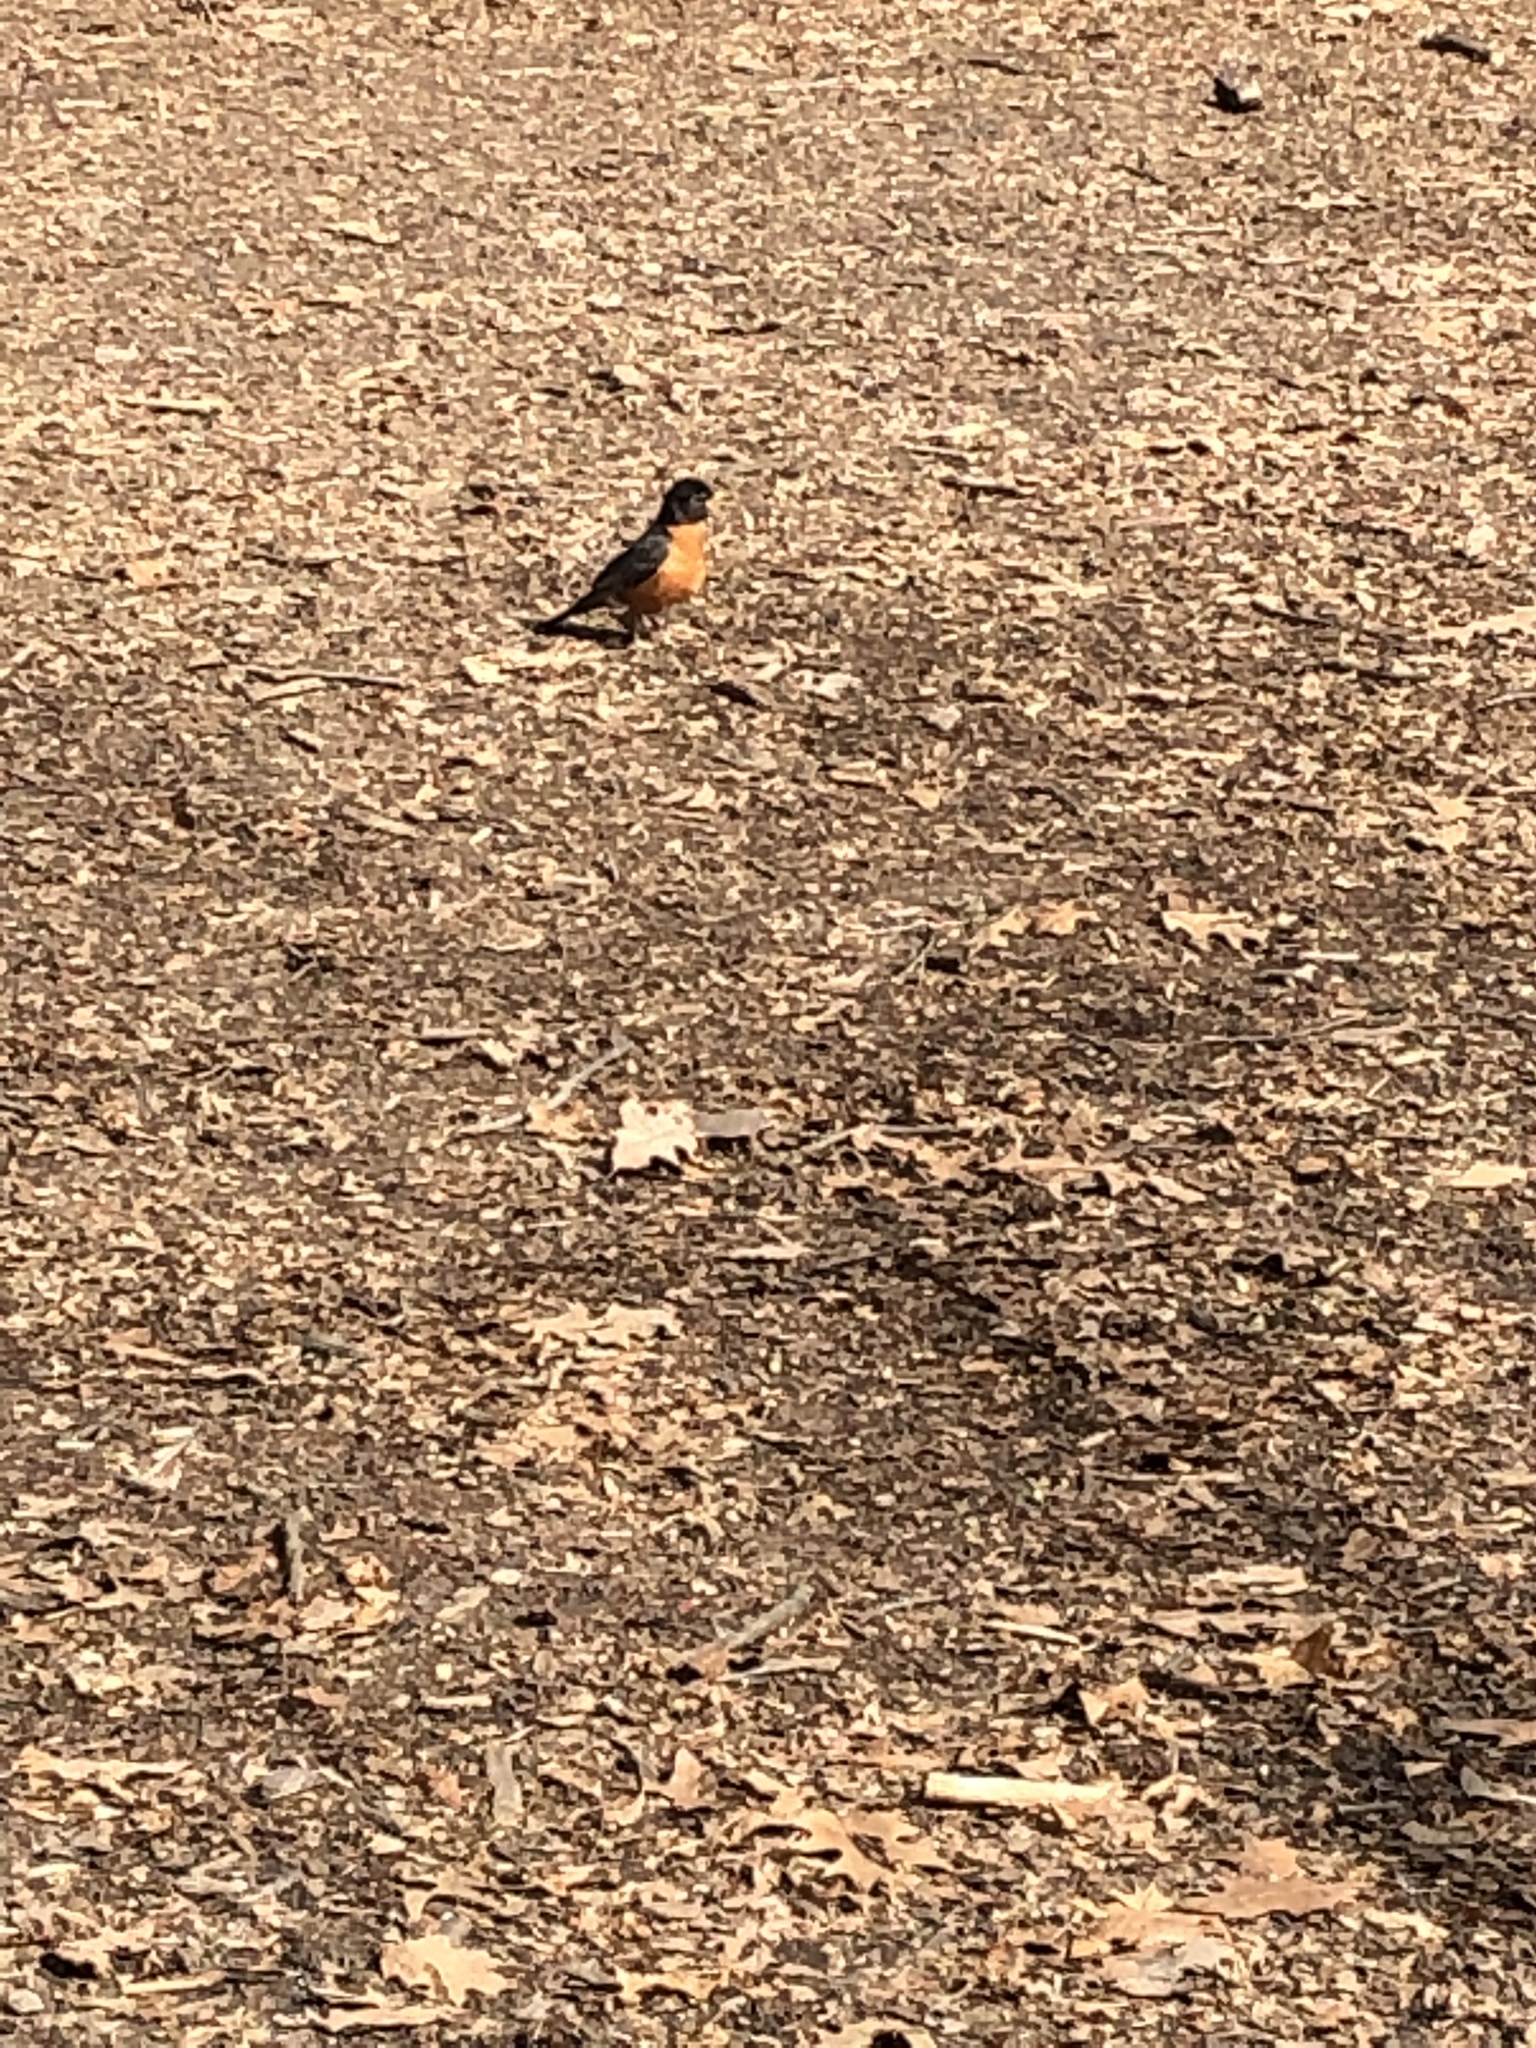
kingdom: Animalia
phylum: Chordata
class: Aves
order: Passeriformes
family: Turdidae
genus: Turdus
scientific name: Turdus migratorius
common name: American robin
